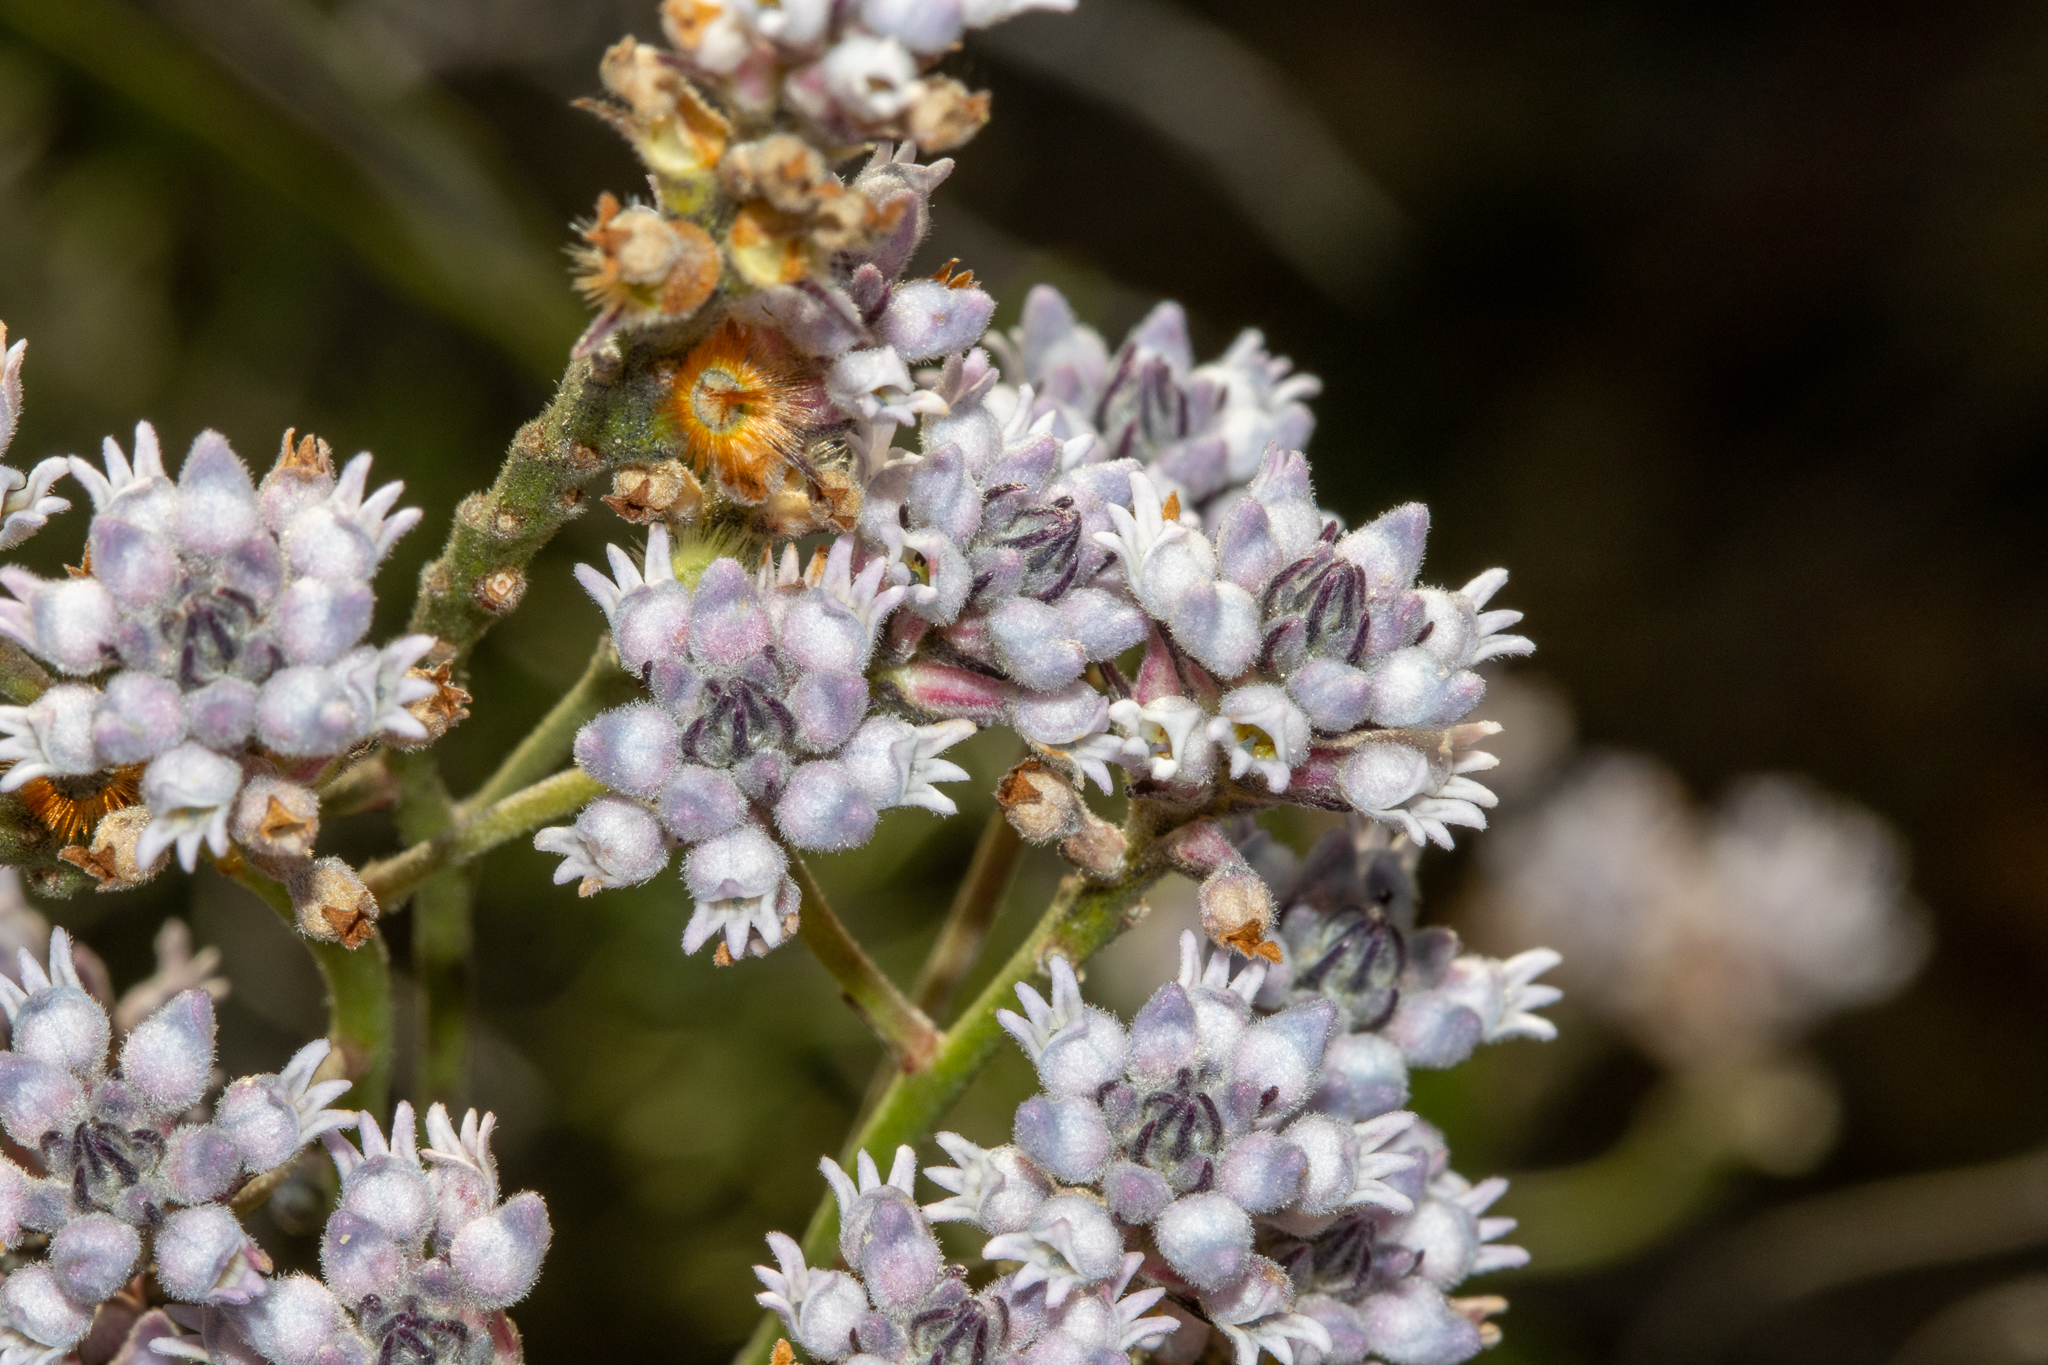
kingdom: Plantae
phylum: Tracheophyta
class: Magnoliopsida
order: Proteales
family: Proteaceae
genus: Conospermum
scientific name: Conospermum patens
